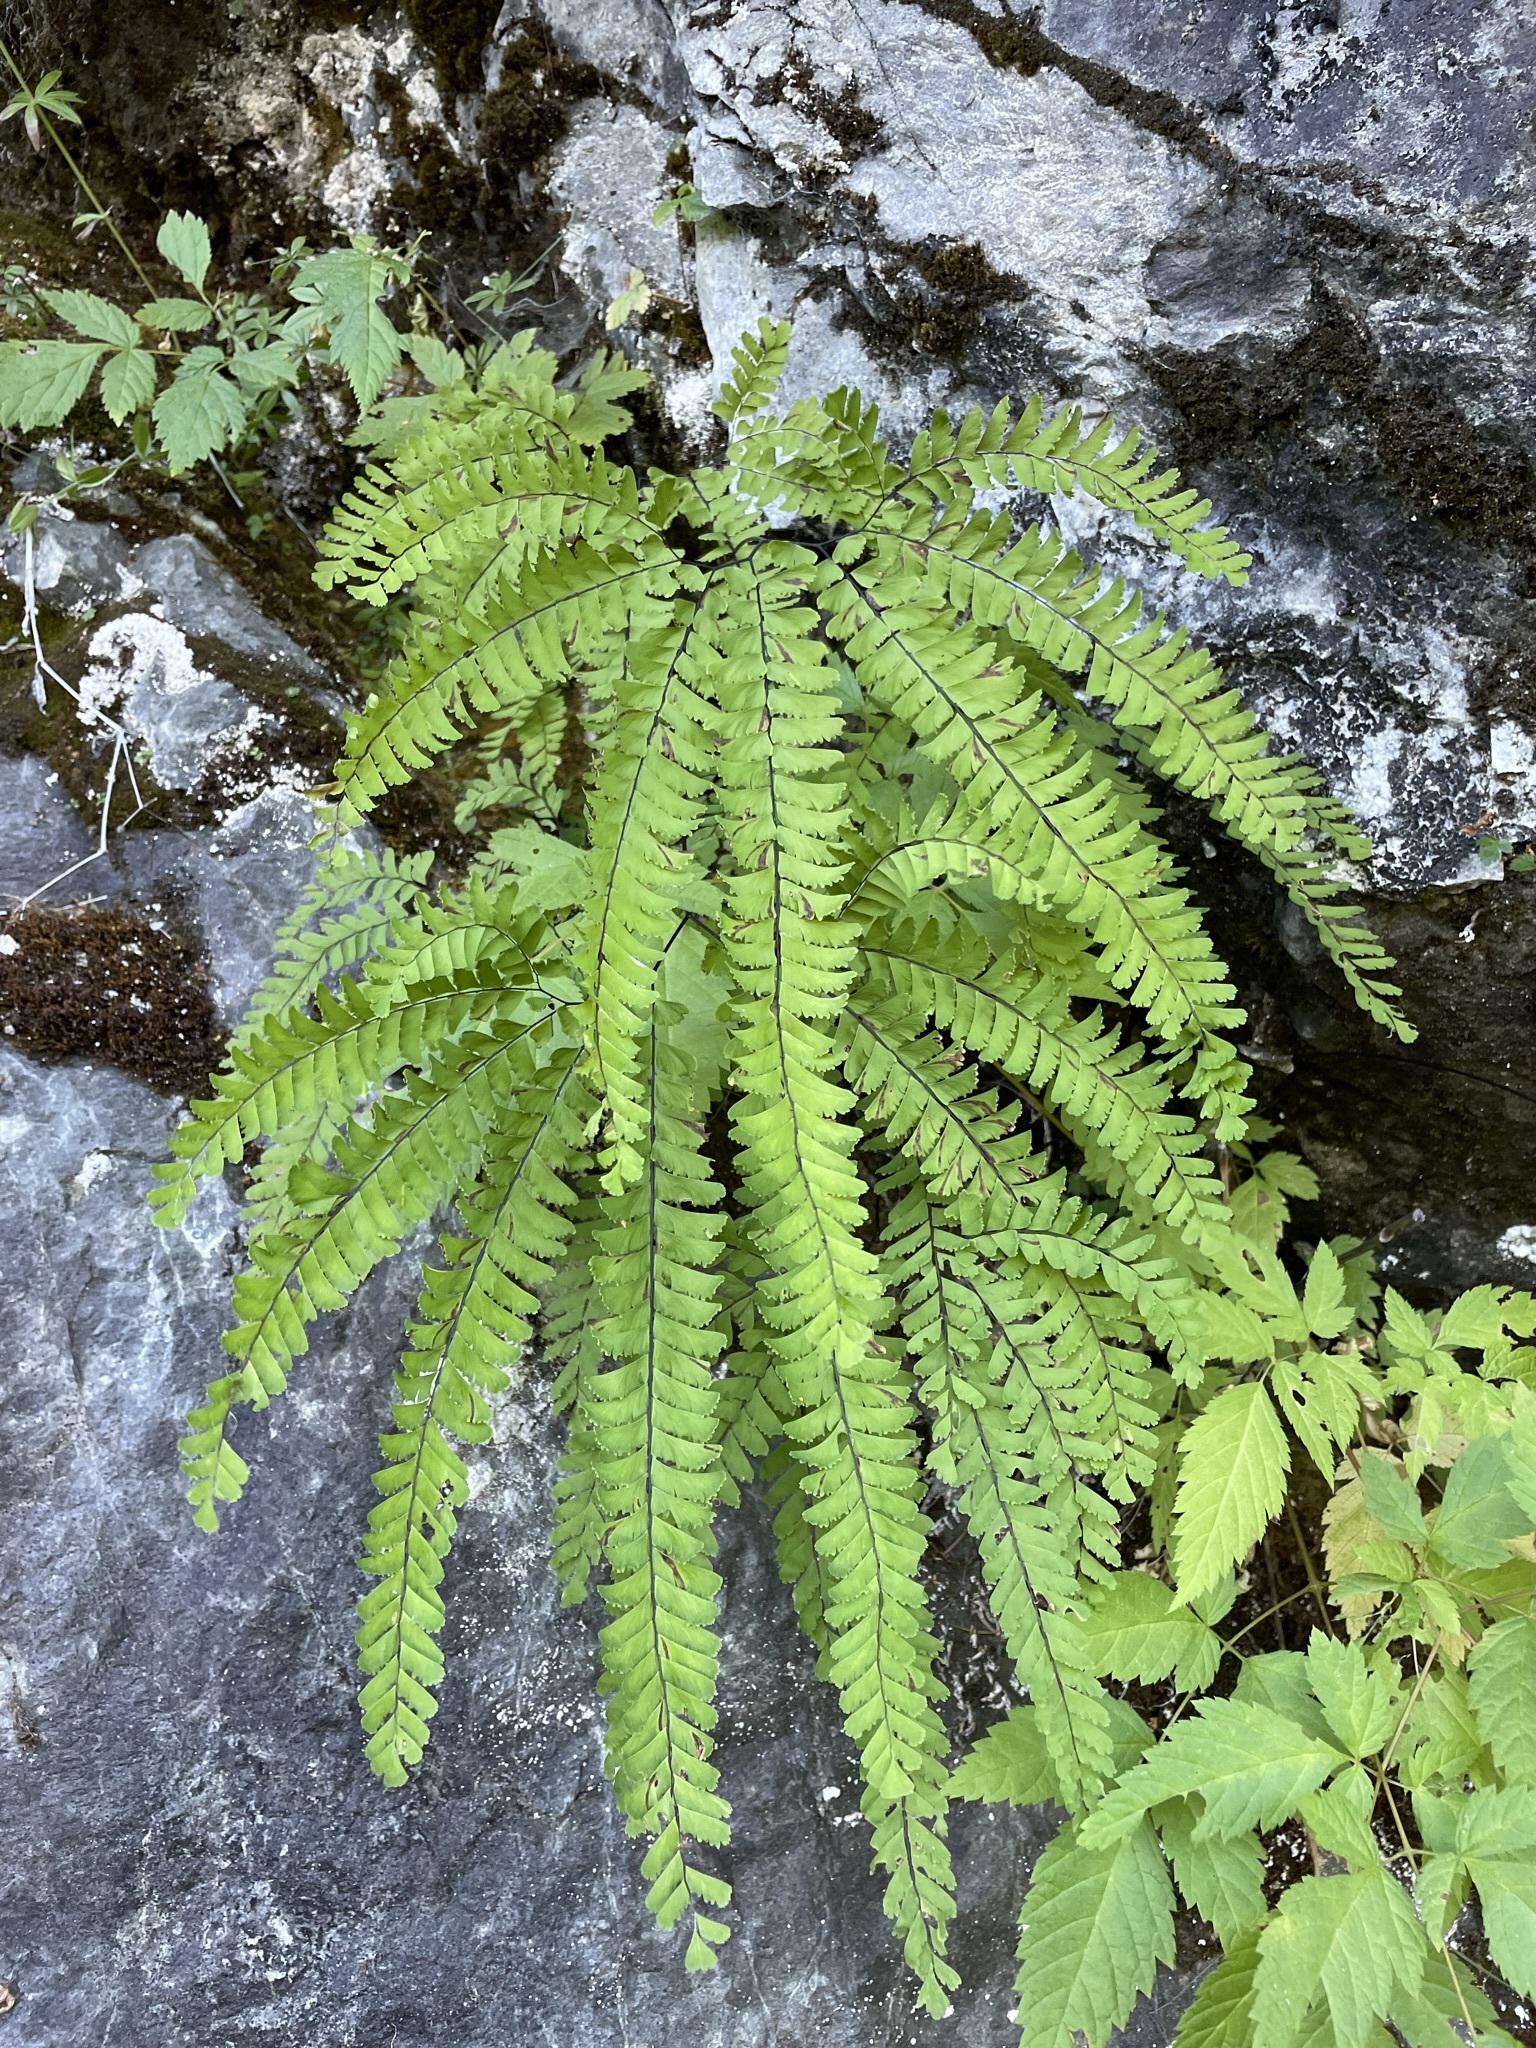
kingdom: Plantae
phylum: Tracheophyta
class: Polypodiopsida
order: Polypodiales
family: Pteridaceae
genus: Adiantum
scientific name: Adiantum aleuticum
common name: Aleutian maidenhair fern
